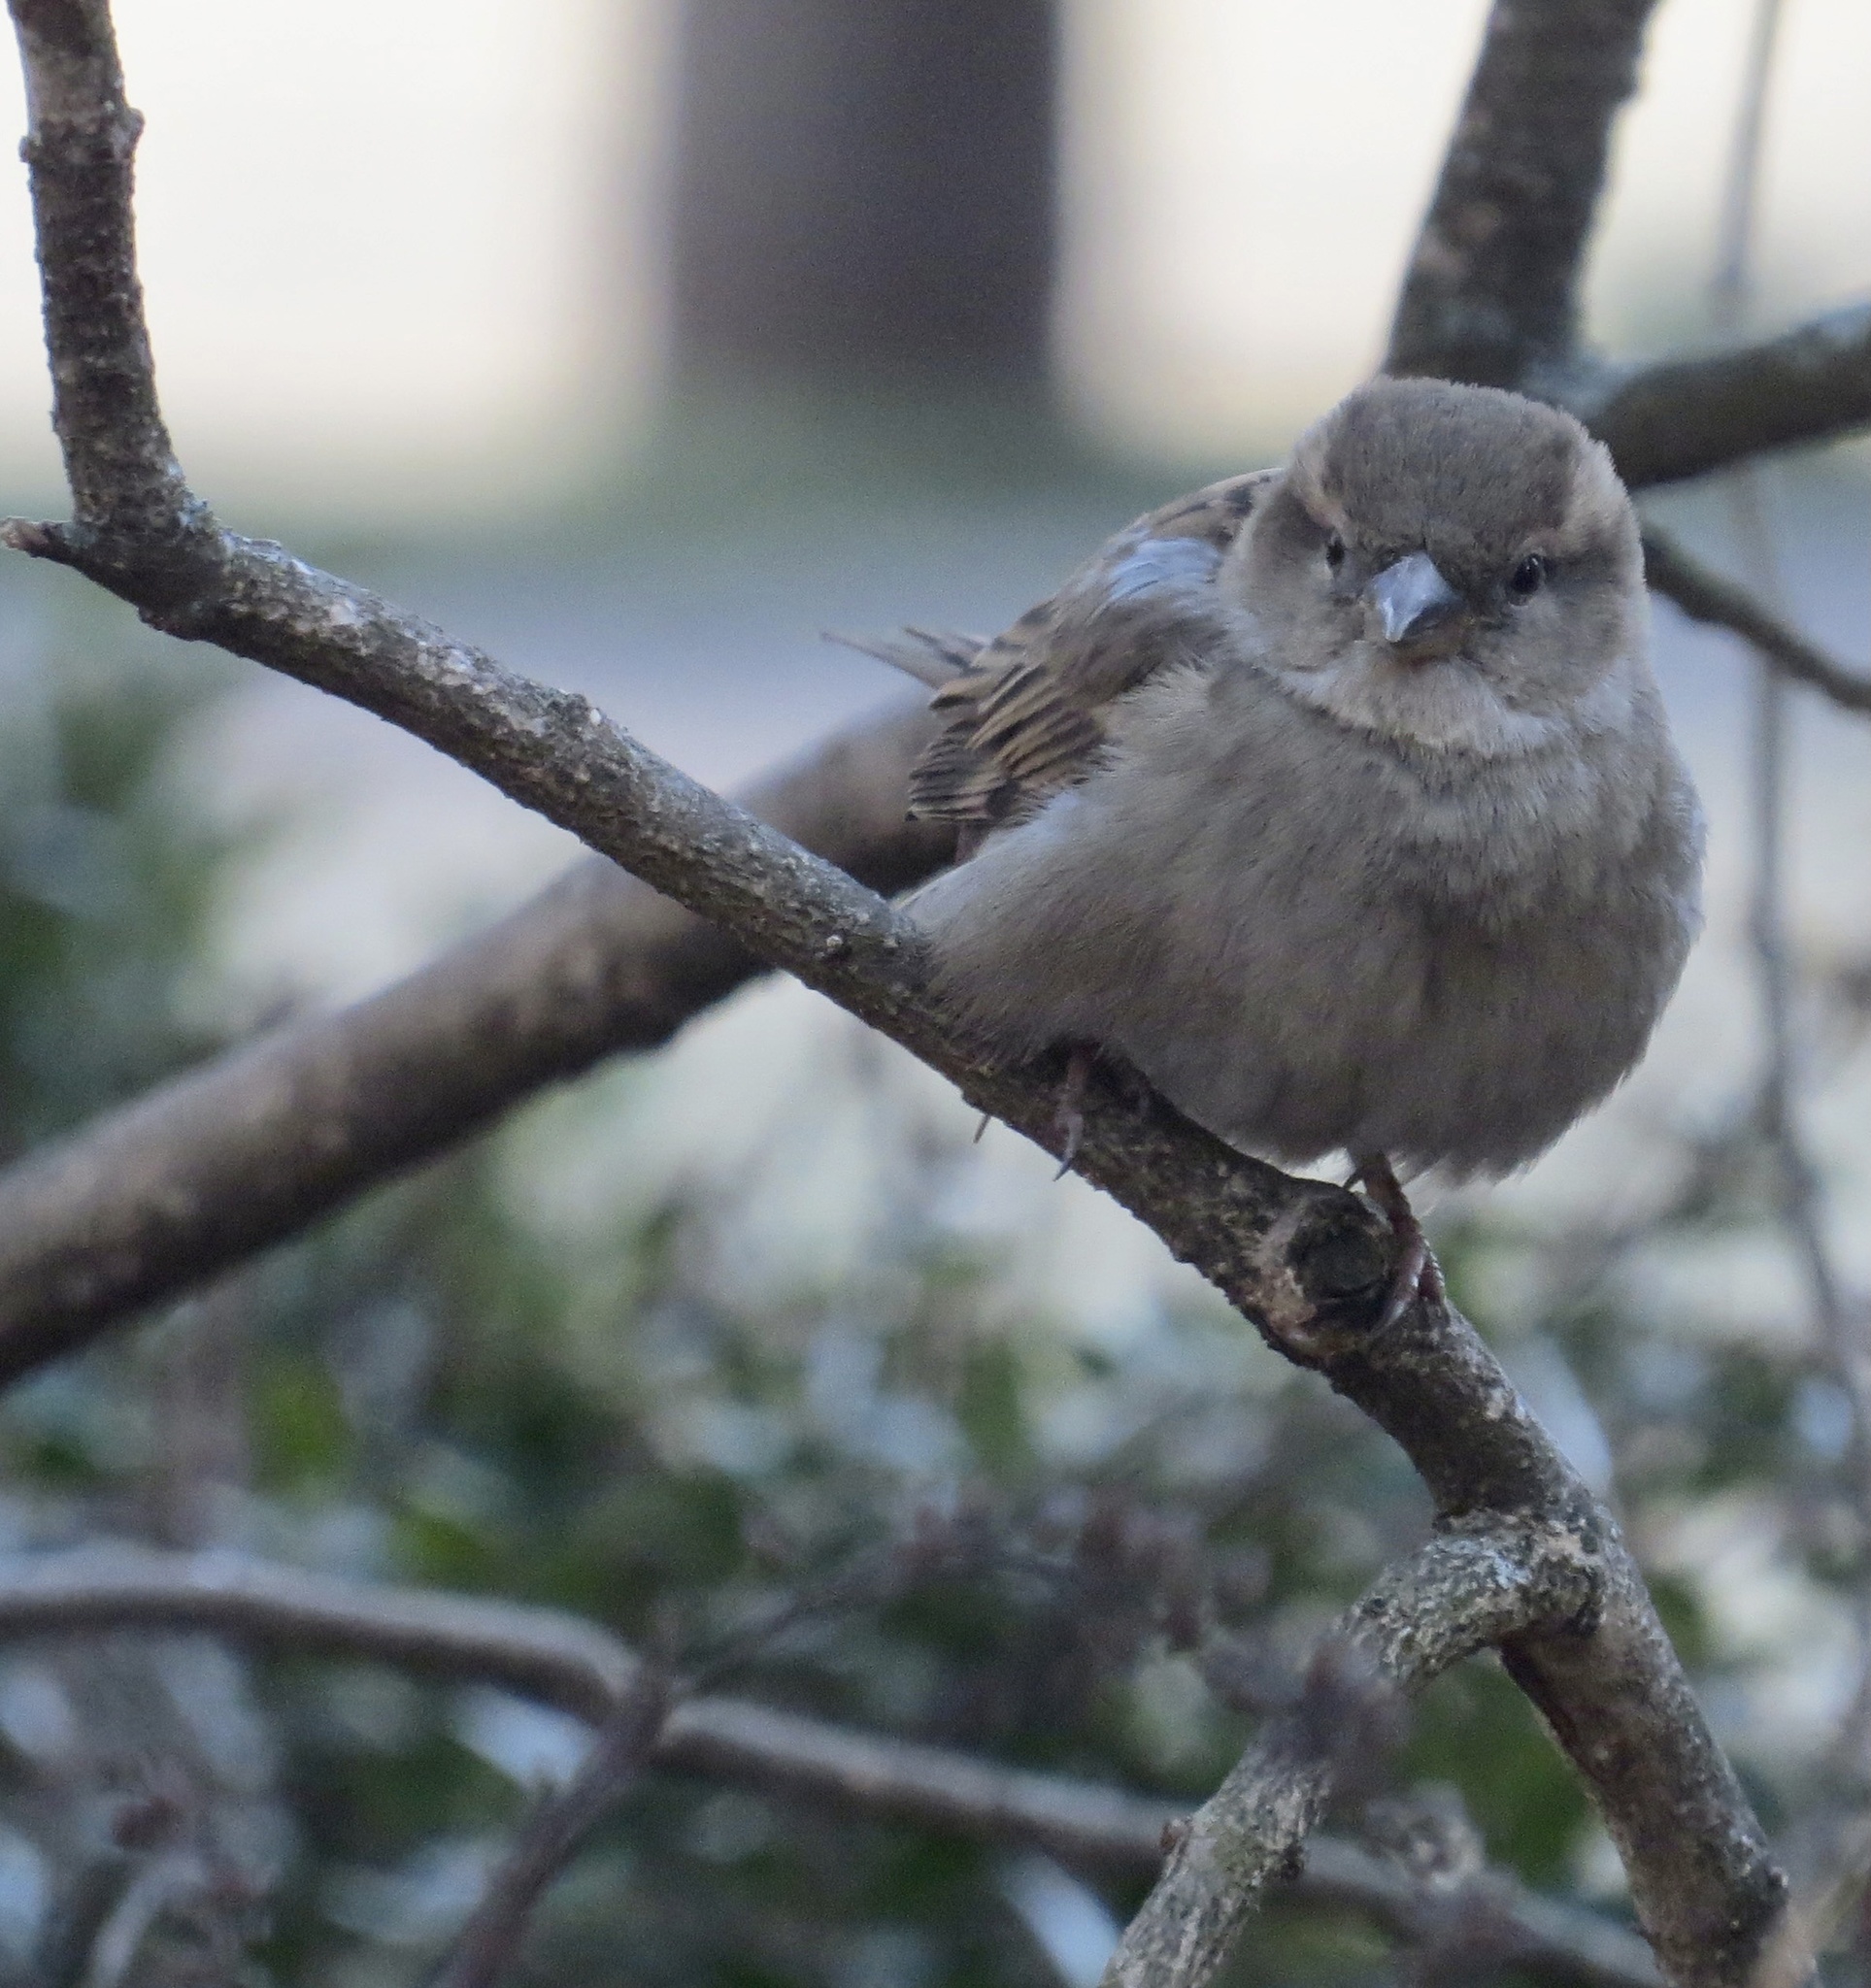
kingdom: Animalia
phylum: Chordata
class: Aves
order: Passeriformes
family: Passeridae
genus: Passer
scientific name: Passer domesticus
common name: House sparrow
